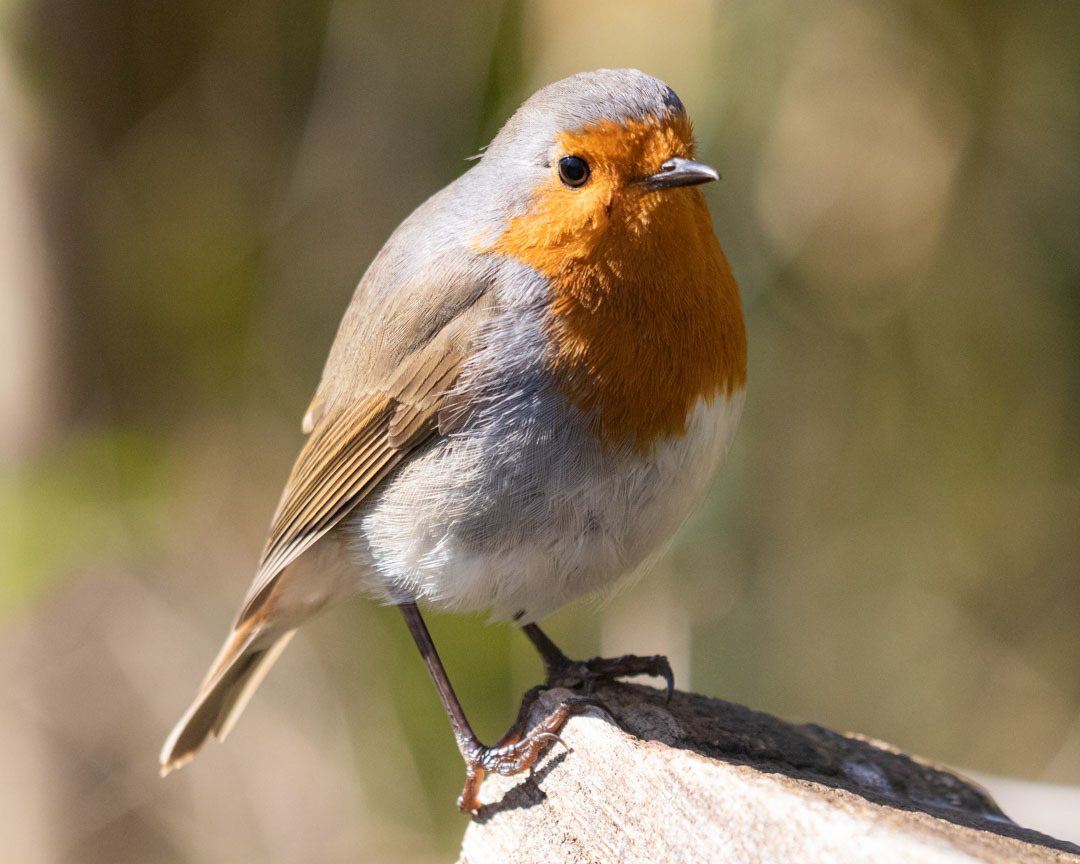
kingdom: Animalia
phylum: Chordata
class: Aves
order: Passeriformes
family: Muscicapidae
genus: Erithacus
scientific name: Erithacus rubecula
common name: European robin
